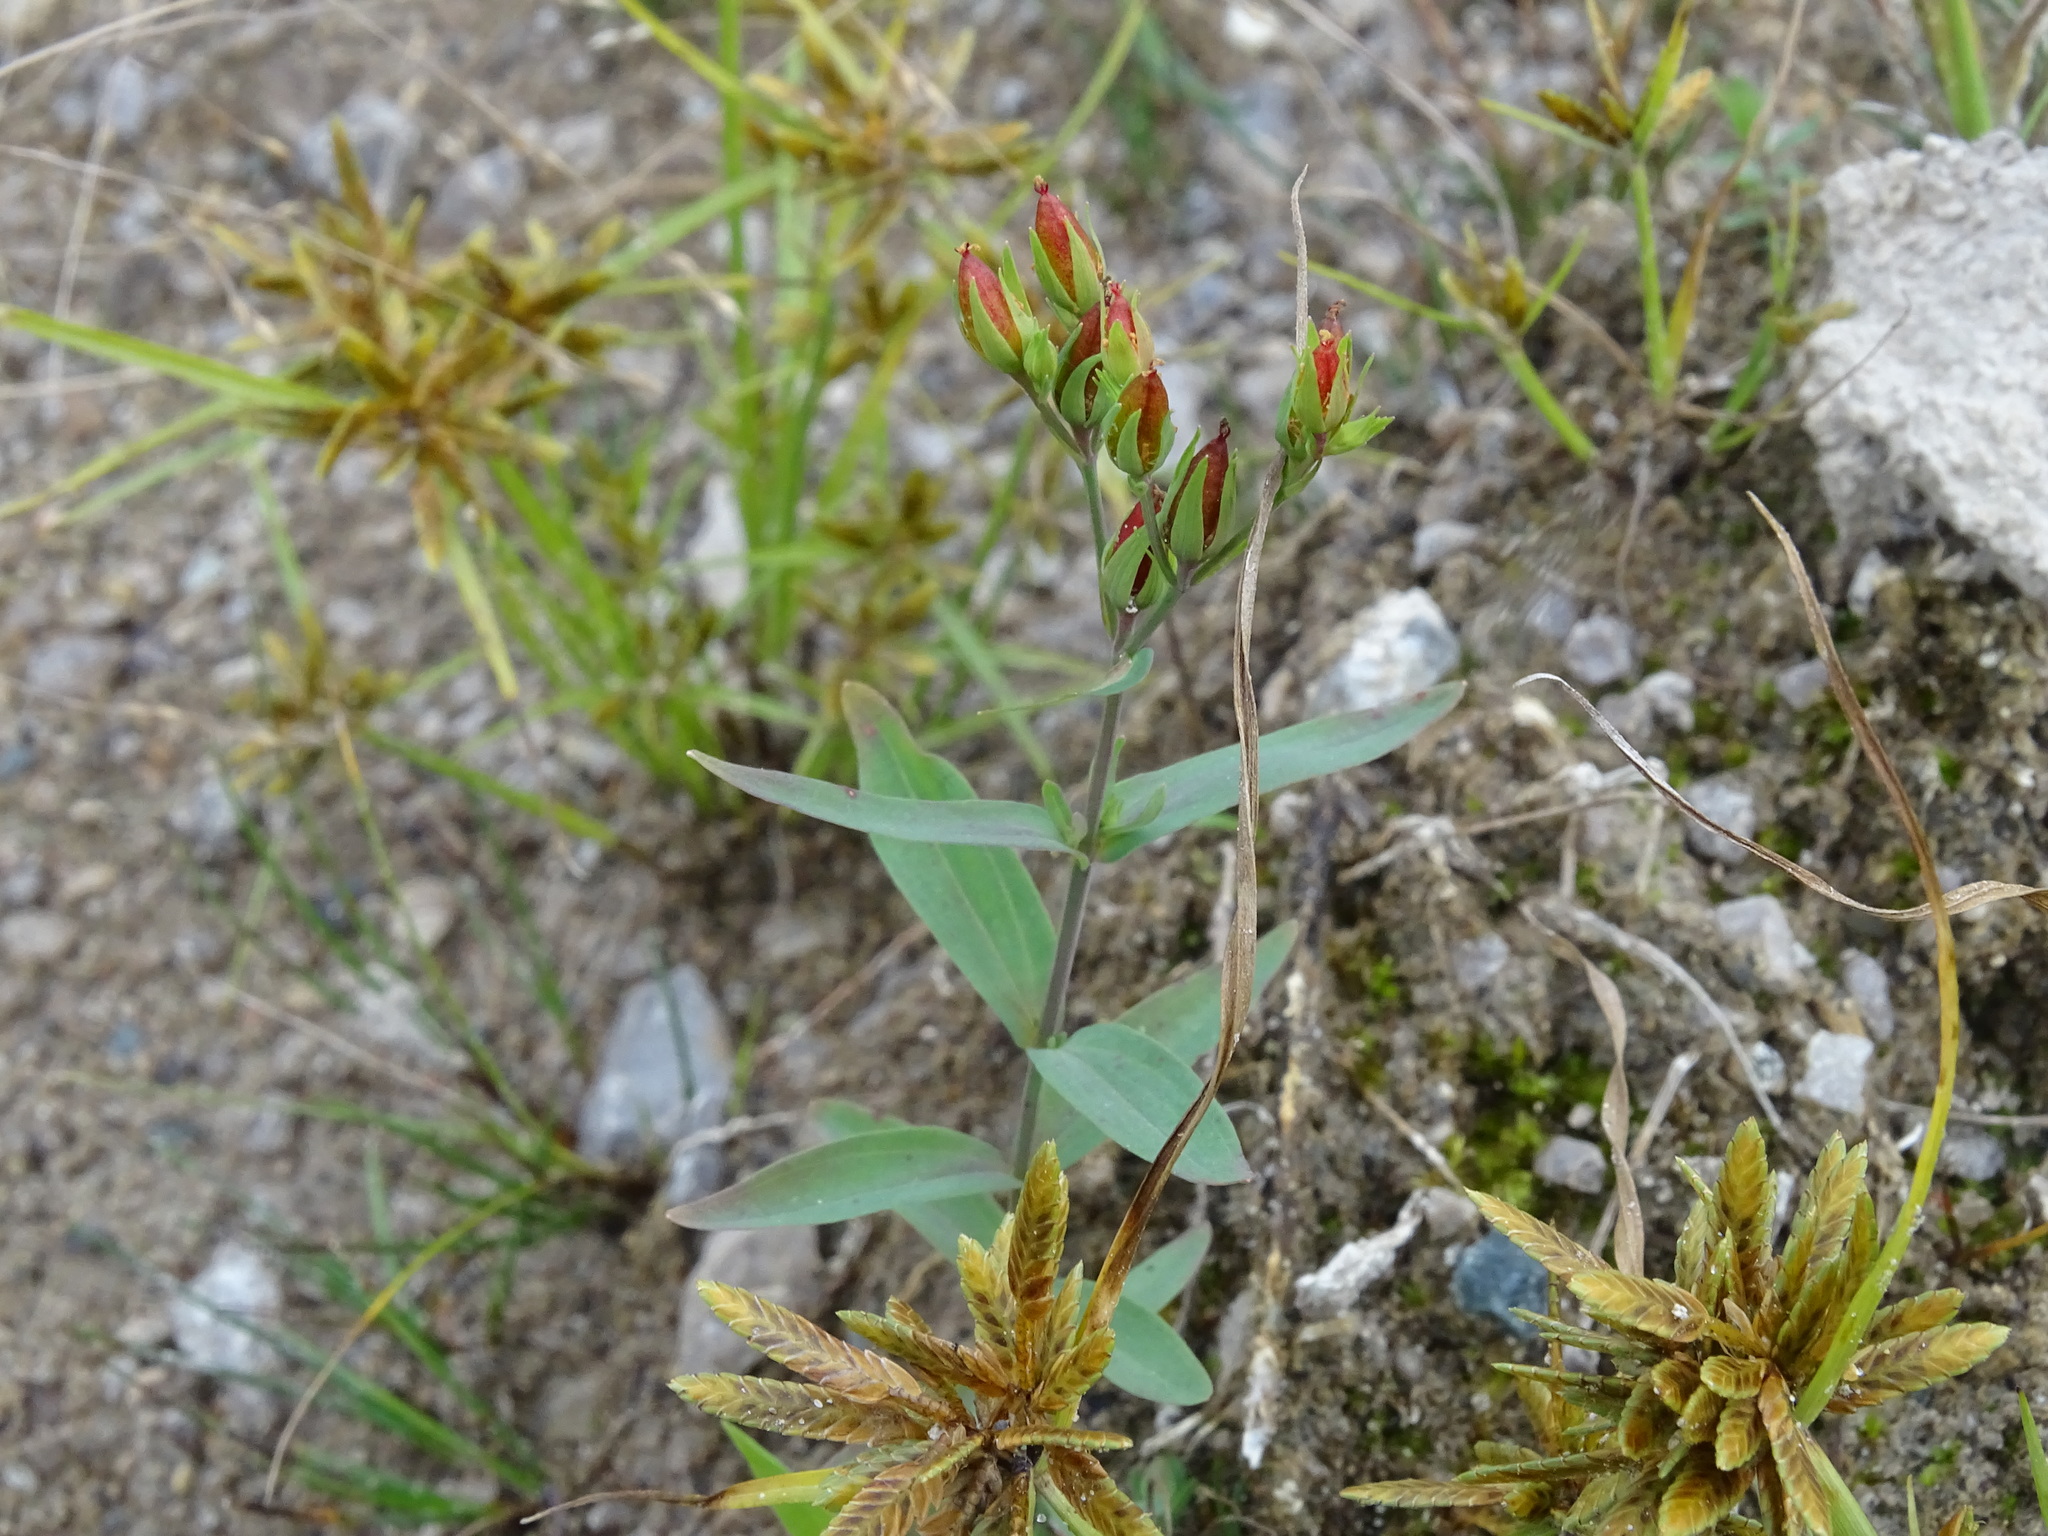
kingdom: Plantae
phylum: Tracheophyta
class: Magnoliopsida
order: Malpighiales
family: Hypericaceae
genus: Hypericum
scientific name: Hypericum majus
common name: Greater canadian st. john's-wort
